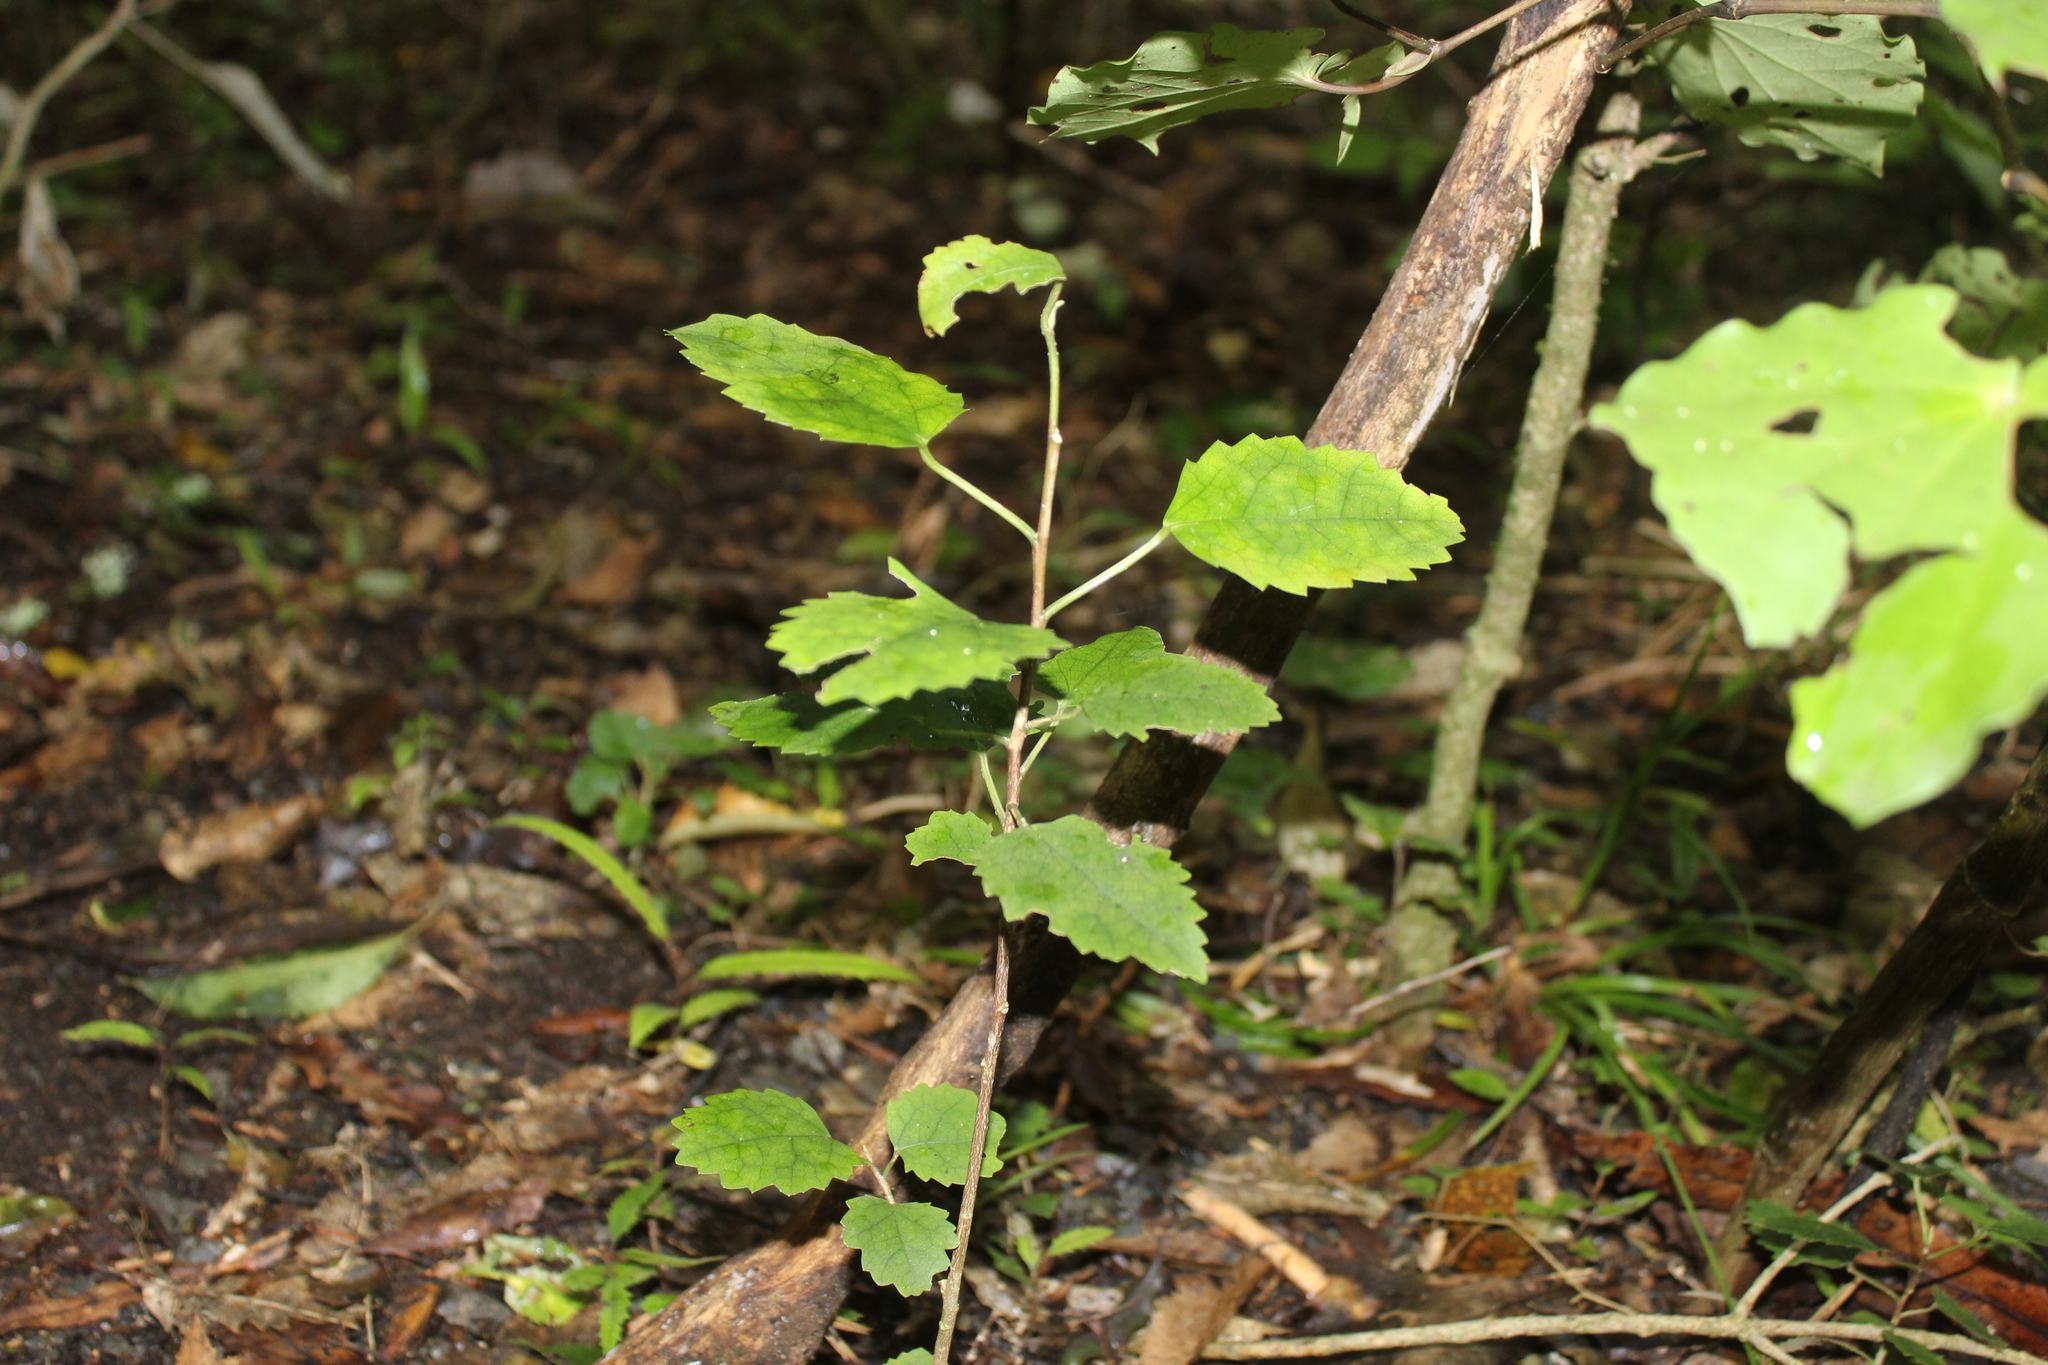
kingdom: Plantae
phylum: Tracheophyta
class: Magnoliopsida
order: Malvales
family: Malvaceae
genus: Hoheria
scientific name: Hoheria populnea
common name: Lacebark
